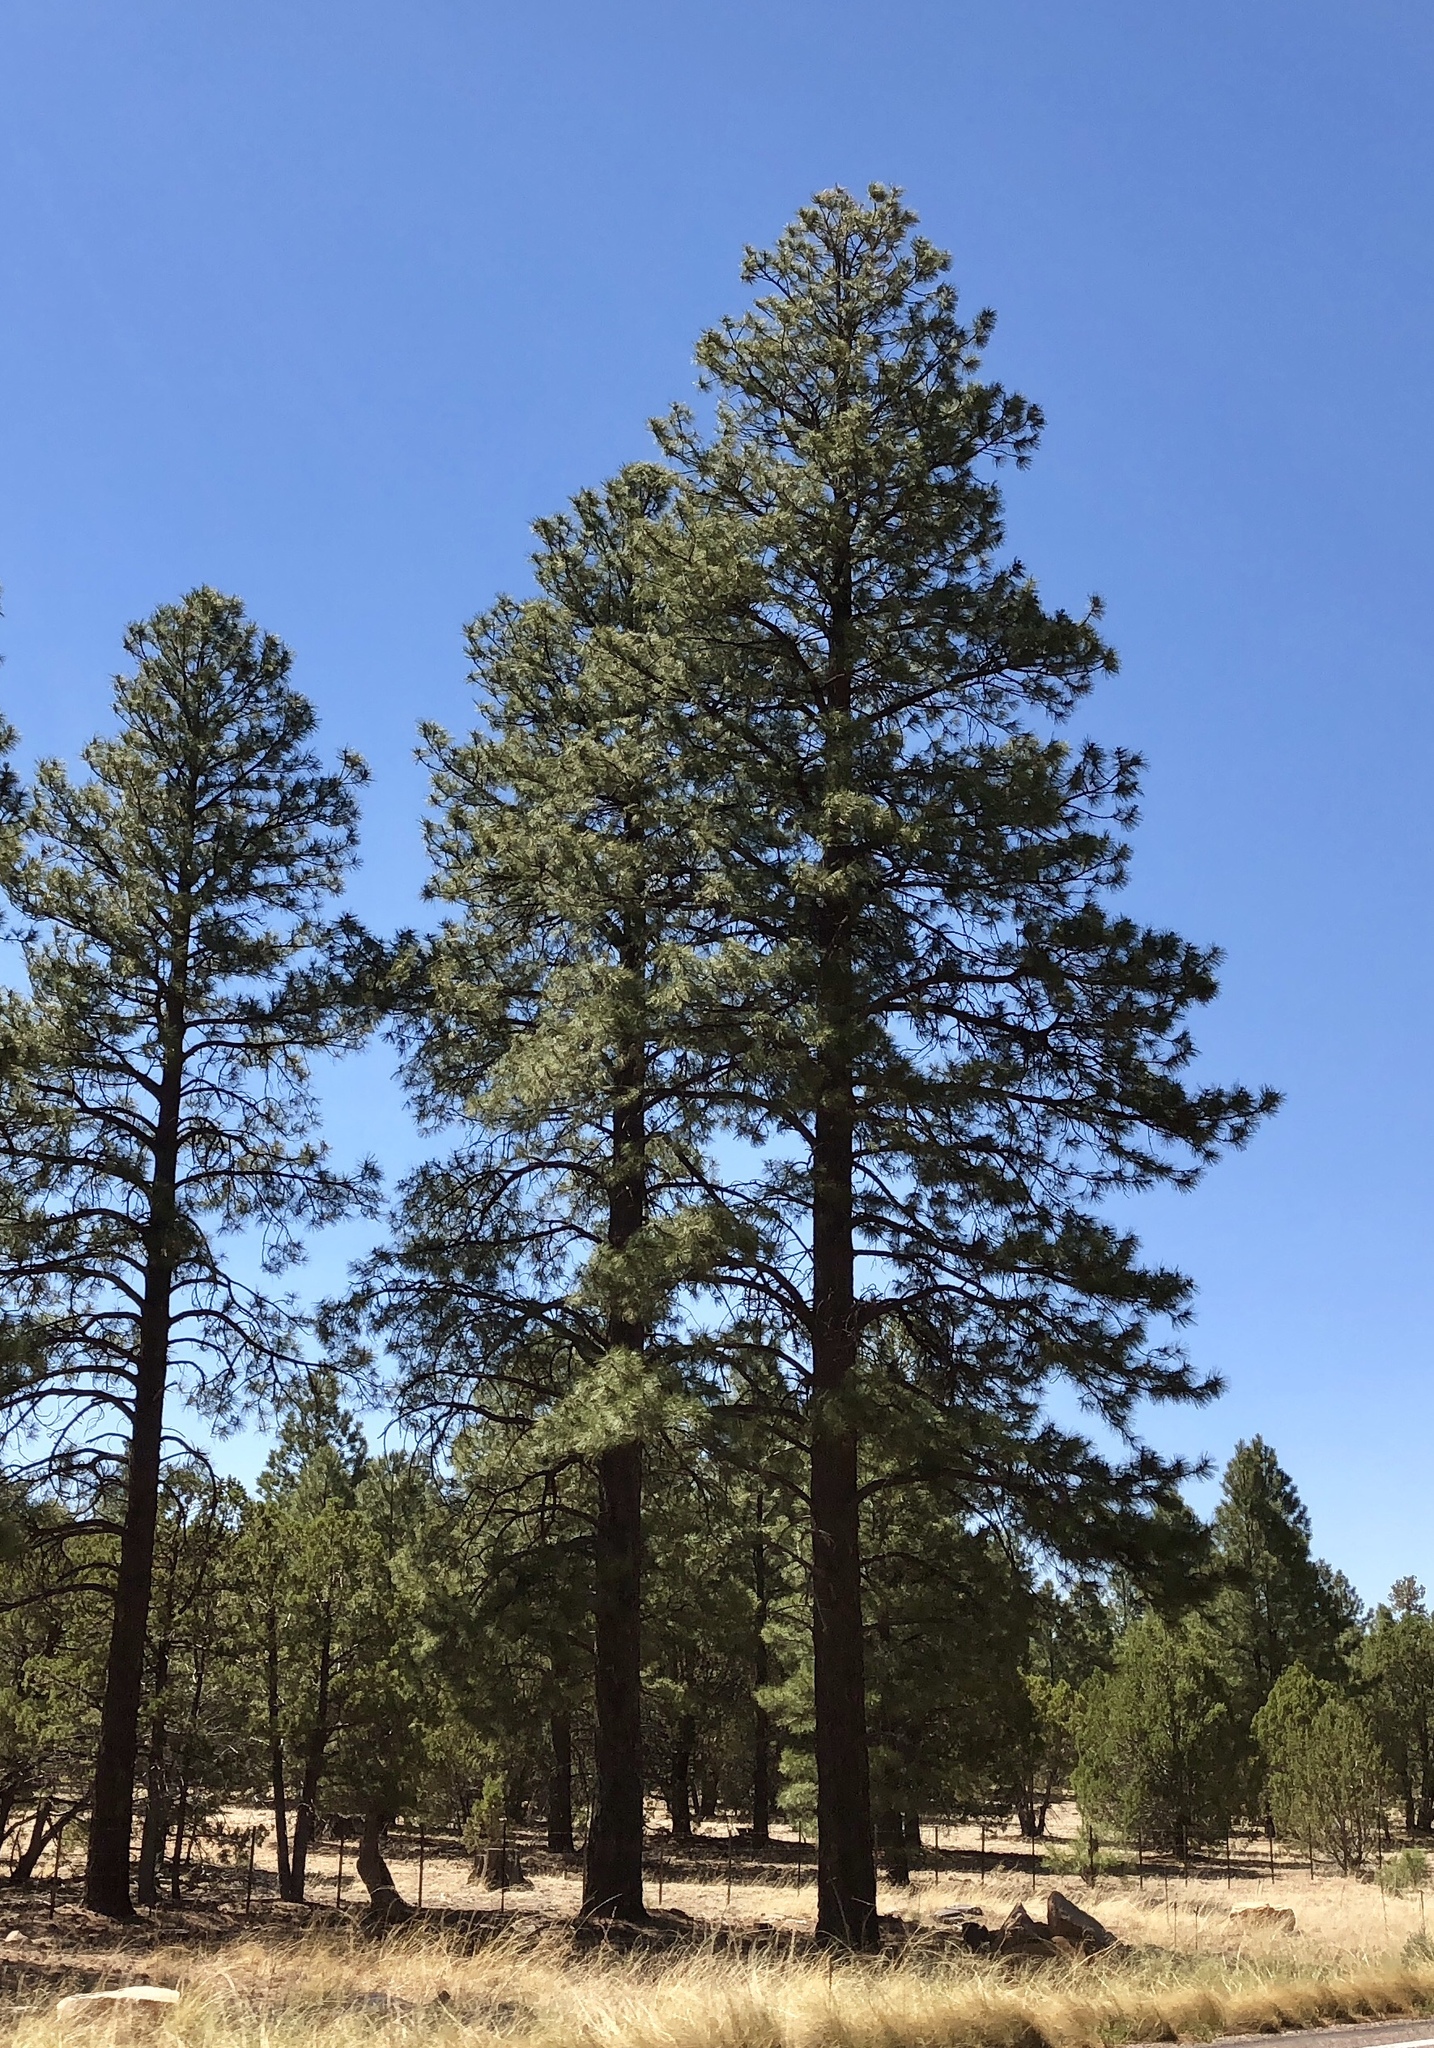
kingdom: Plantae
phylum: Tracheophyta
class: Pinopsida
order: Pinales
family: Pinaceae
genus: Pinus
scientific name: Pinus ponderosa
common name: Western yellow-pine
